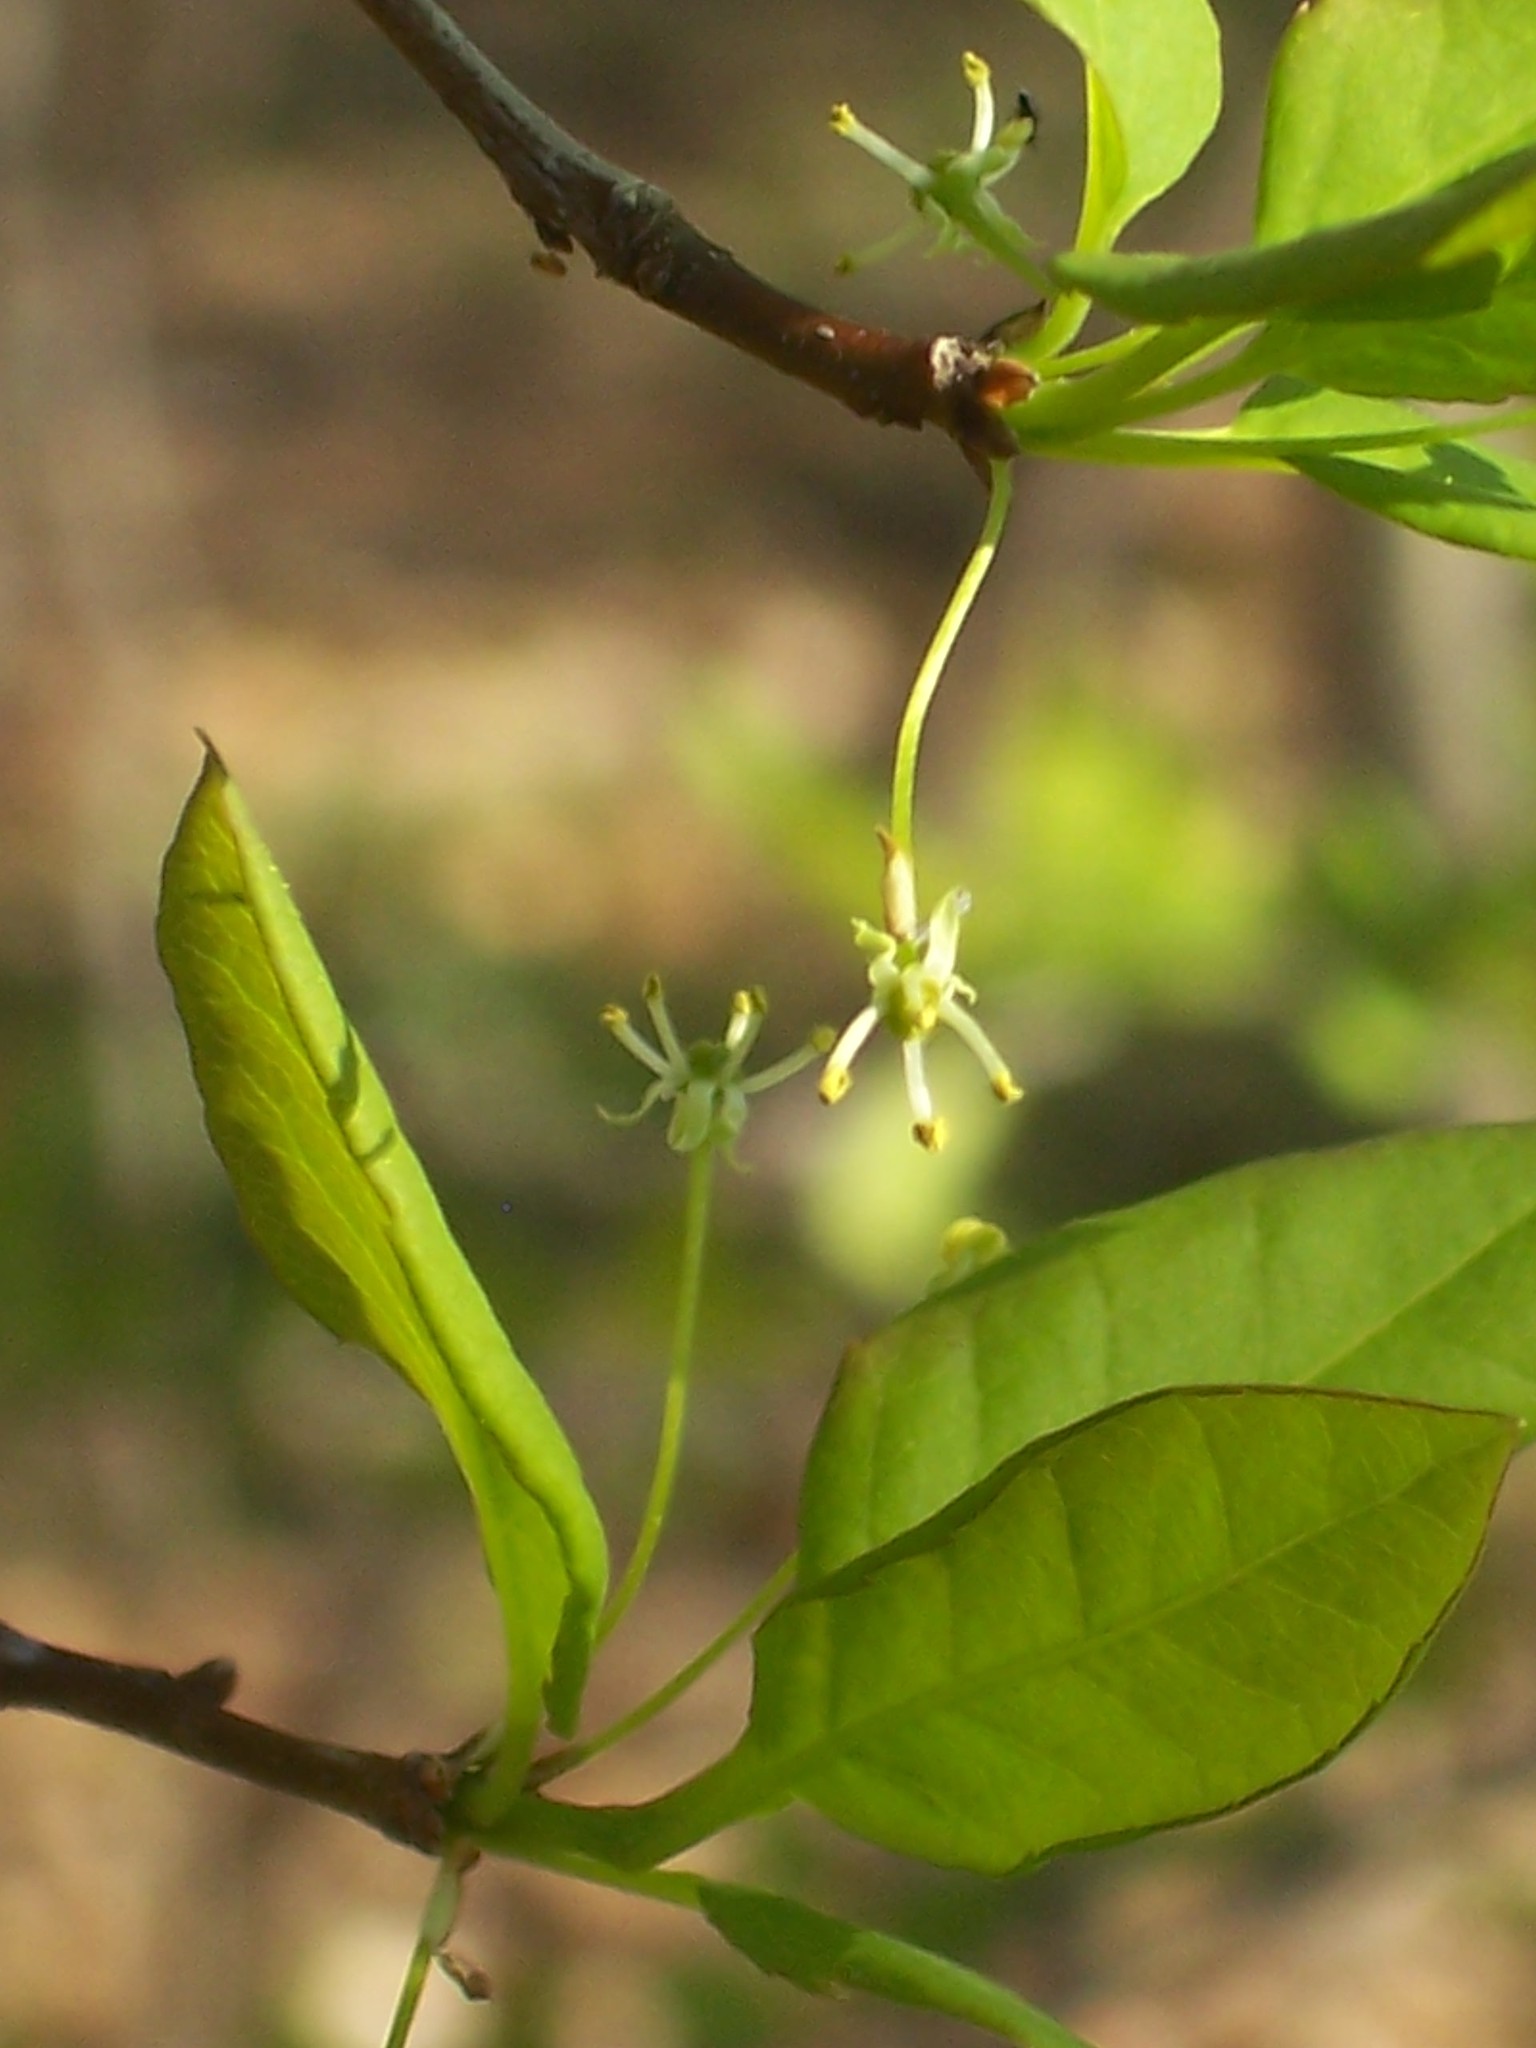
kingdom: Plantae
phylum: Tracheophyta
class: Magnoliopsida
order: Aquifoliales
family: Aquifoliaceae
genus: Ilex
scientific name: Ilex mucronata
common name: Catberry
